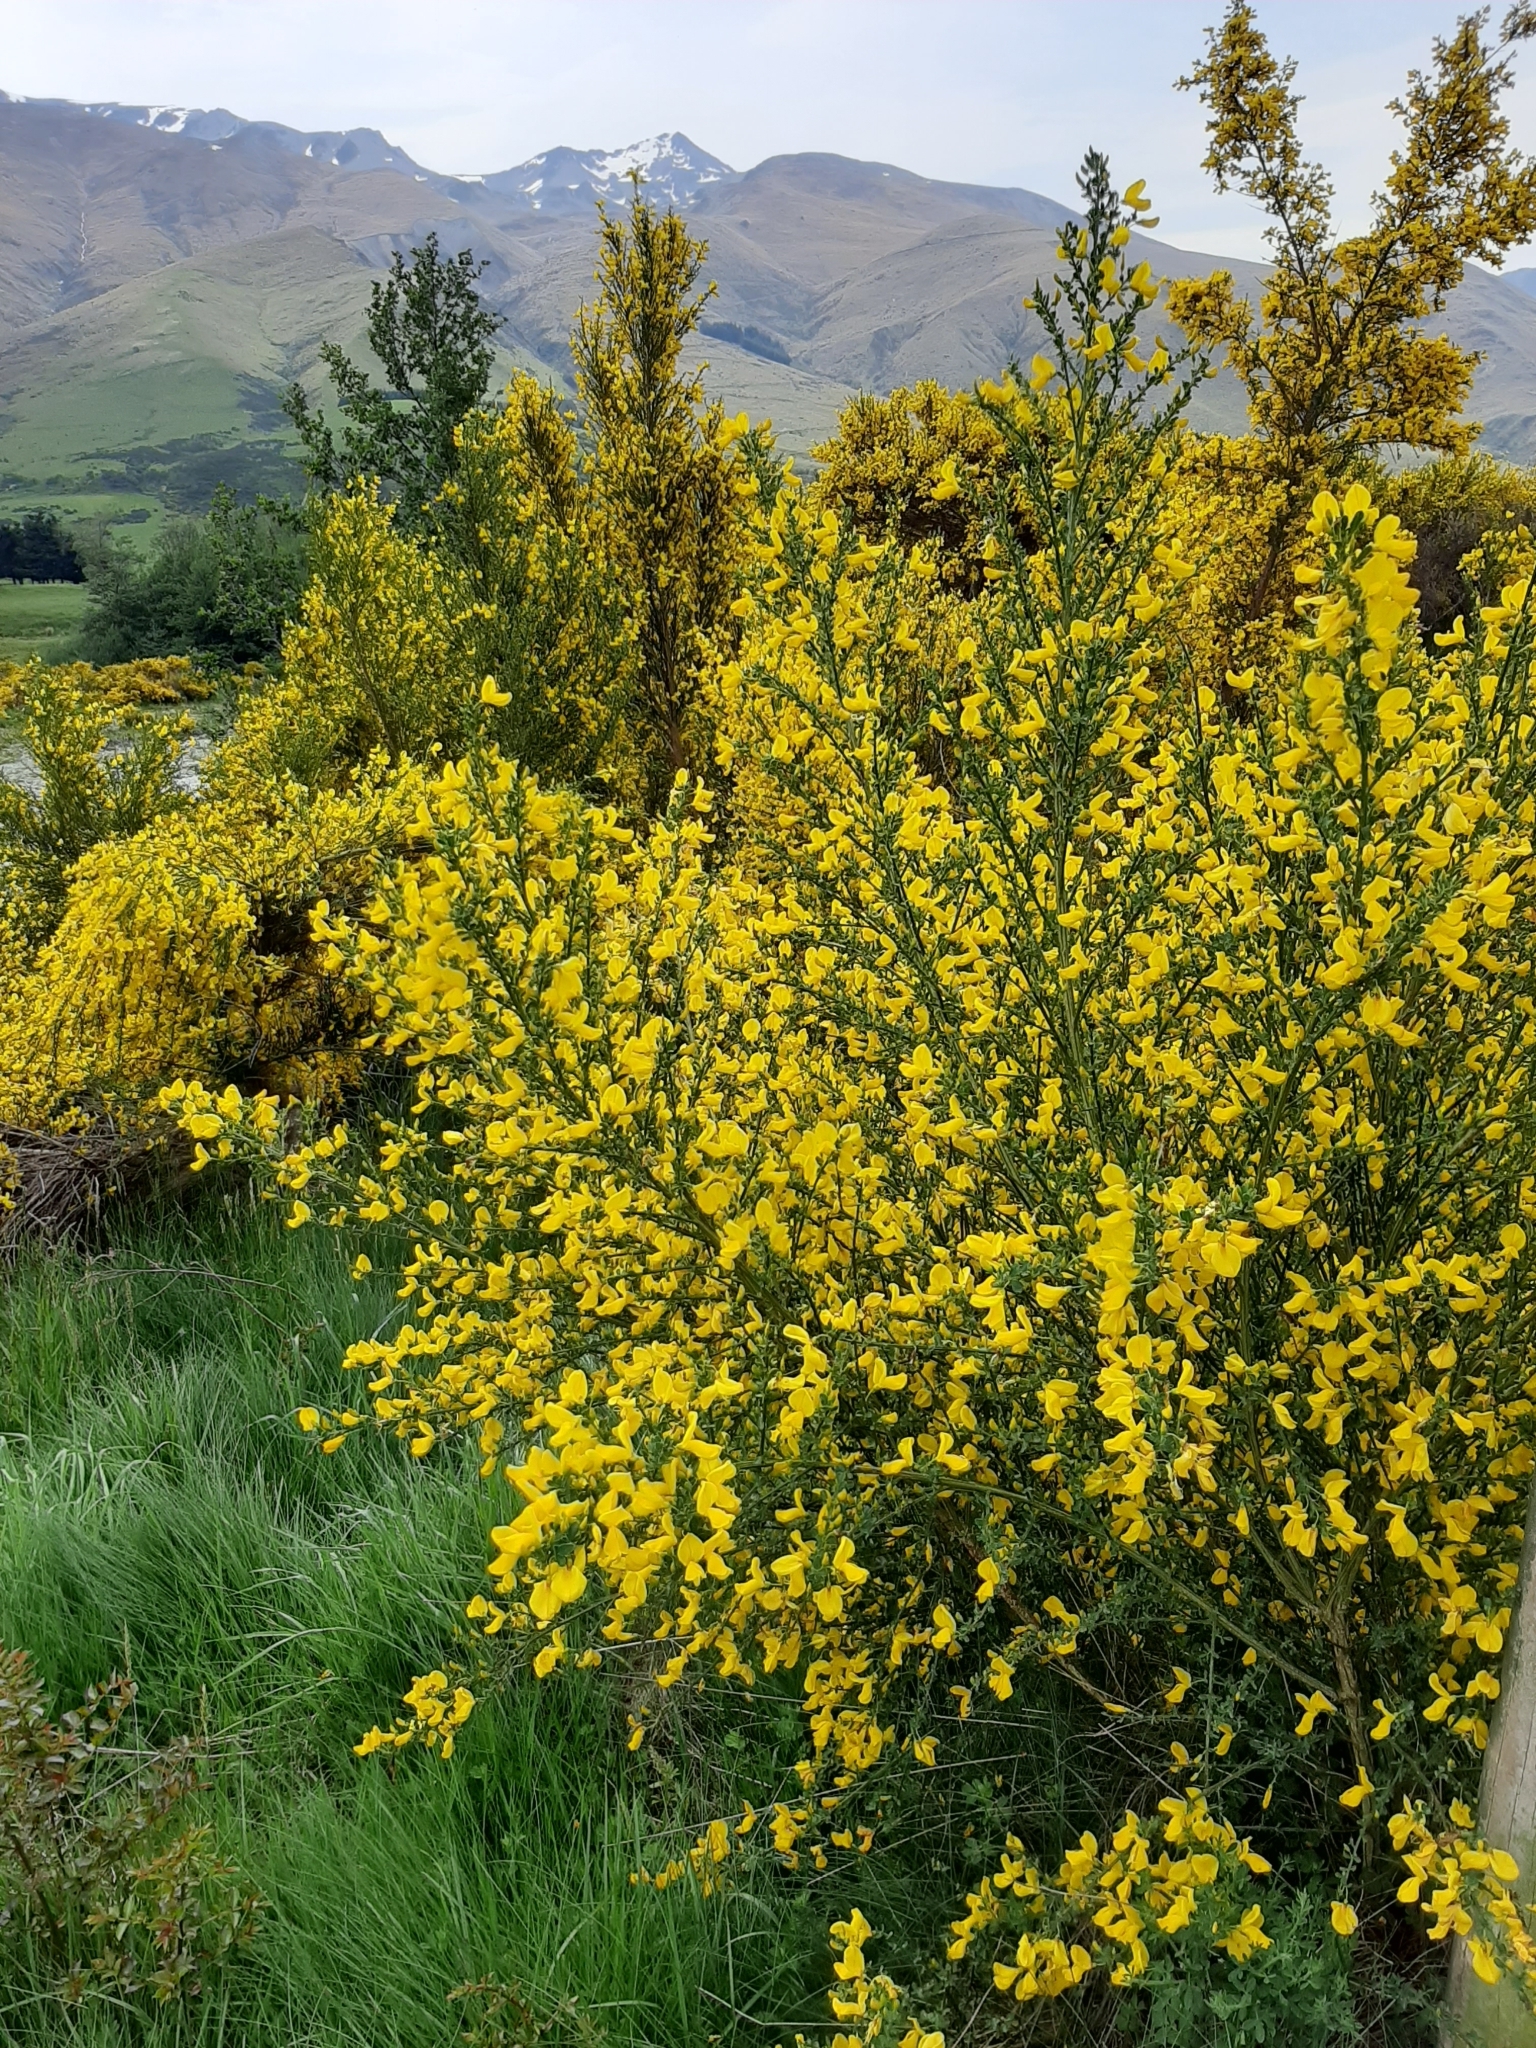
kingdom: Plantae
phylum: Tracheophyta
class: Magnoliopsida
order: Fabales
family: Fabaceae
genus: Cytisus
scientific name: Cytisus scoparius
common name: Scotch broom
